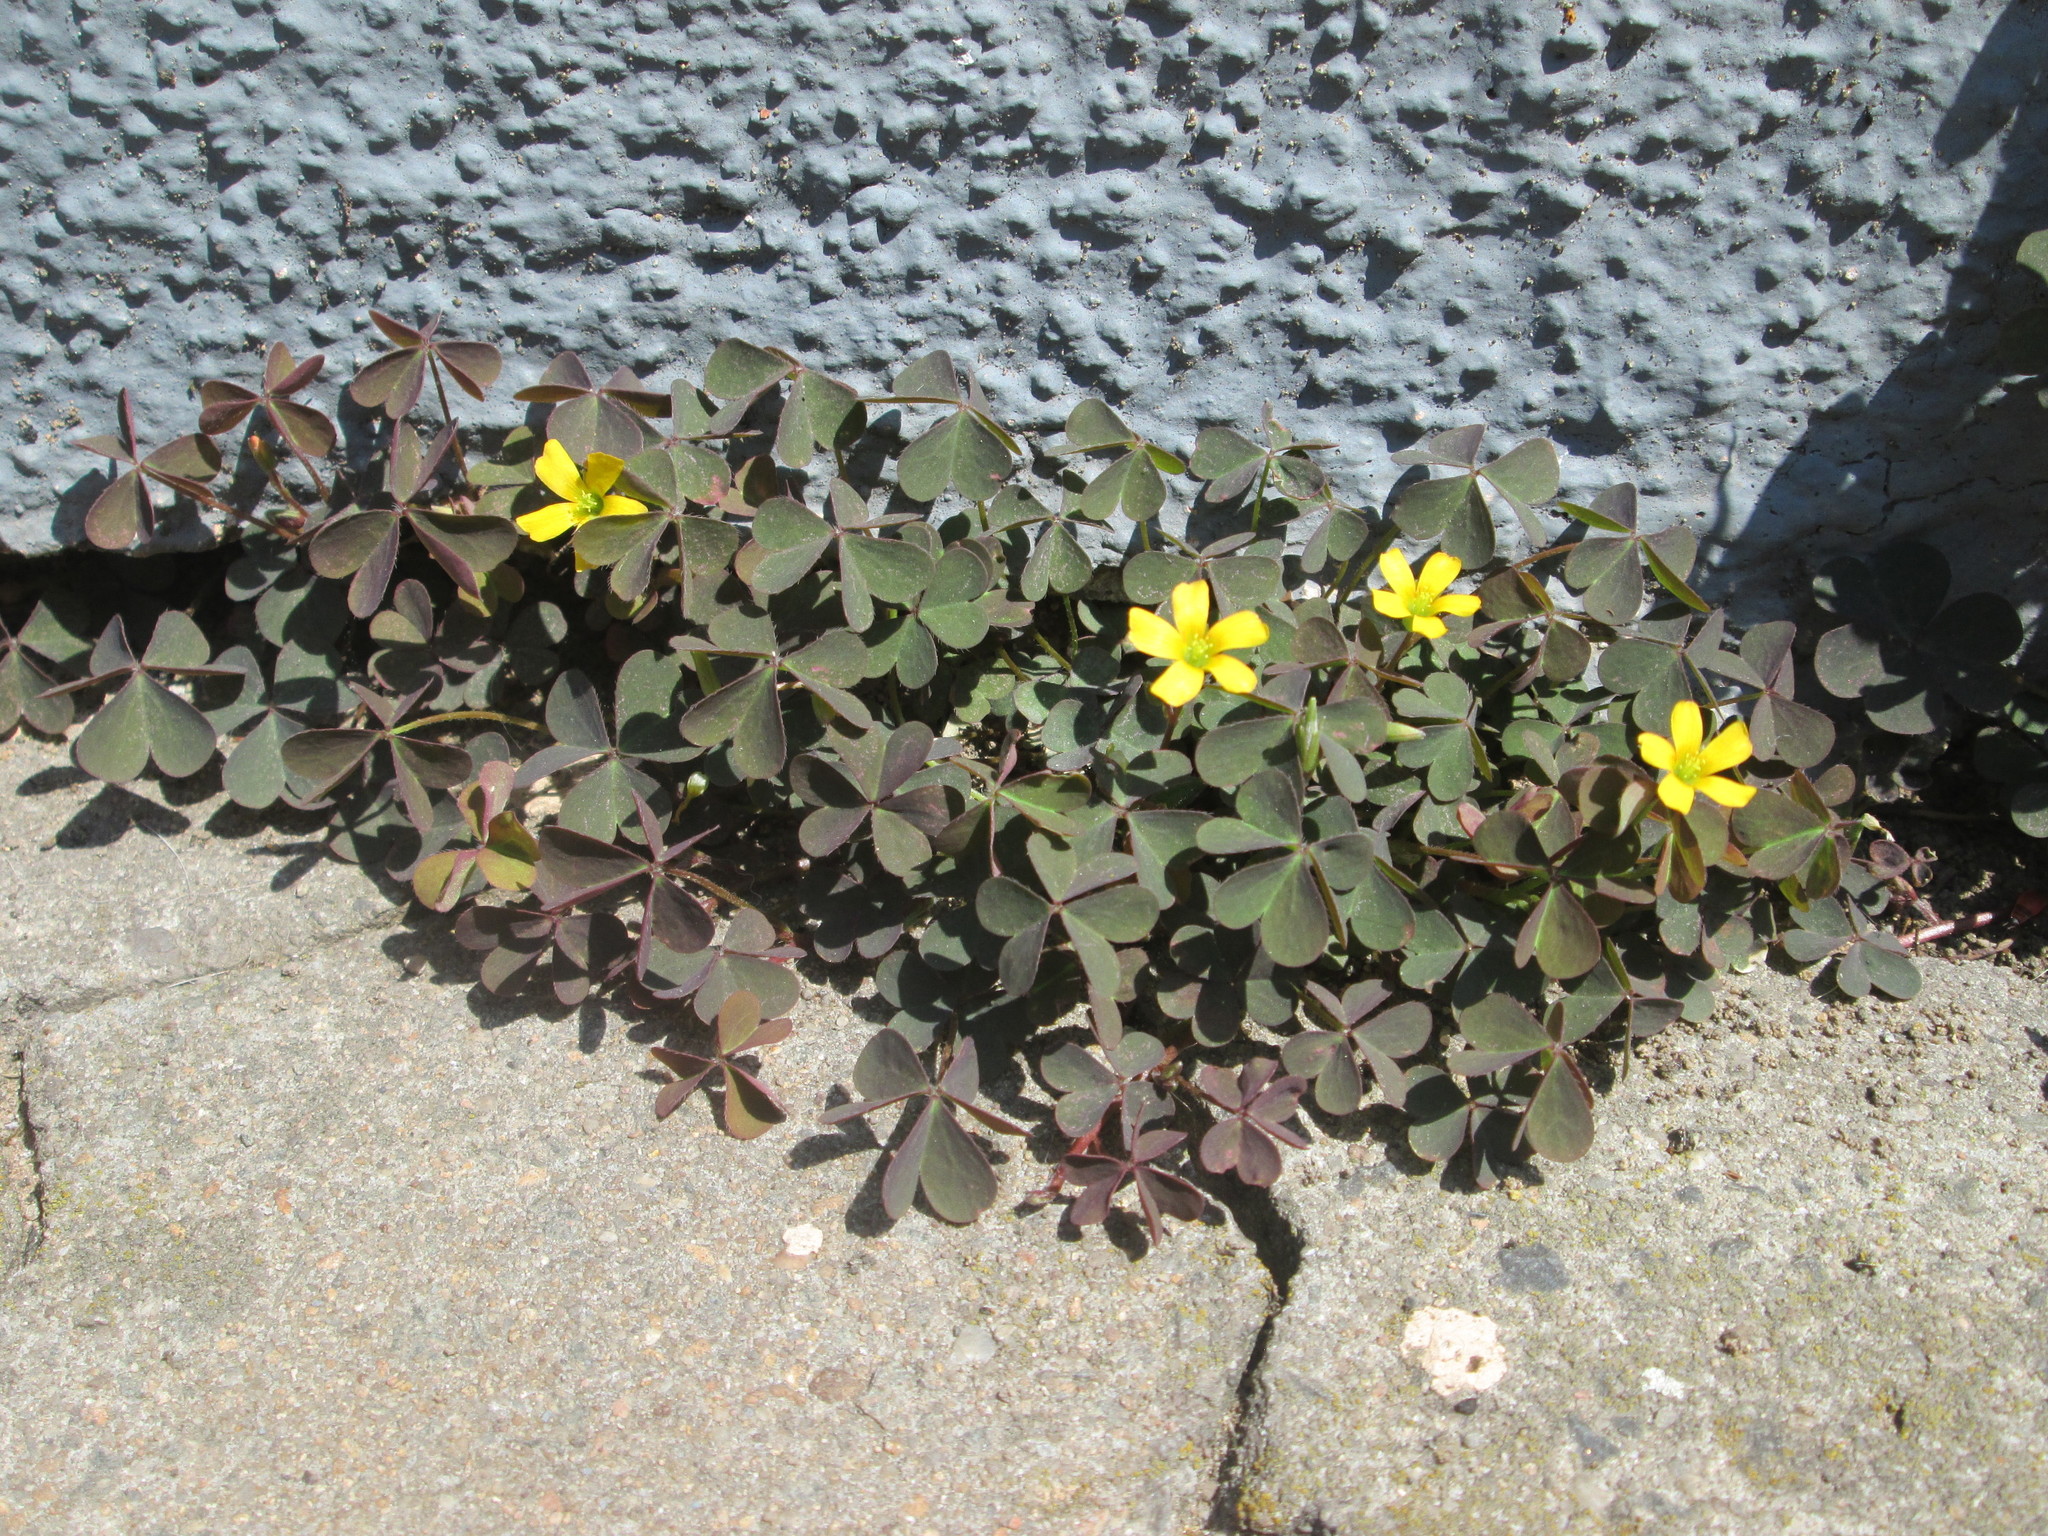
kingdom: Plantae
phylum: Tracheophyta
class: Magnoliopsida
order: Oxalidales
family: Oxalidaceae
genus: Oxalis
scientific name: Oxalis corniculata
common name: Procumbent yellow-sorrel
